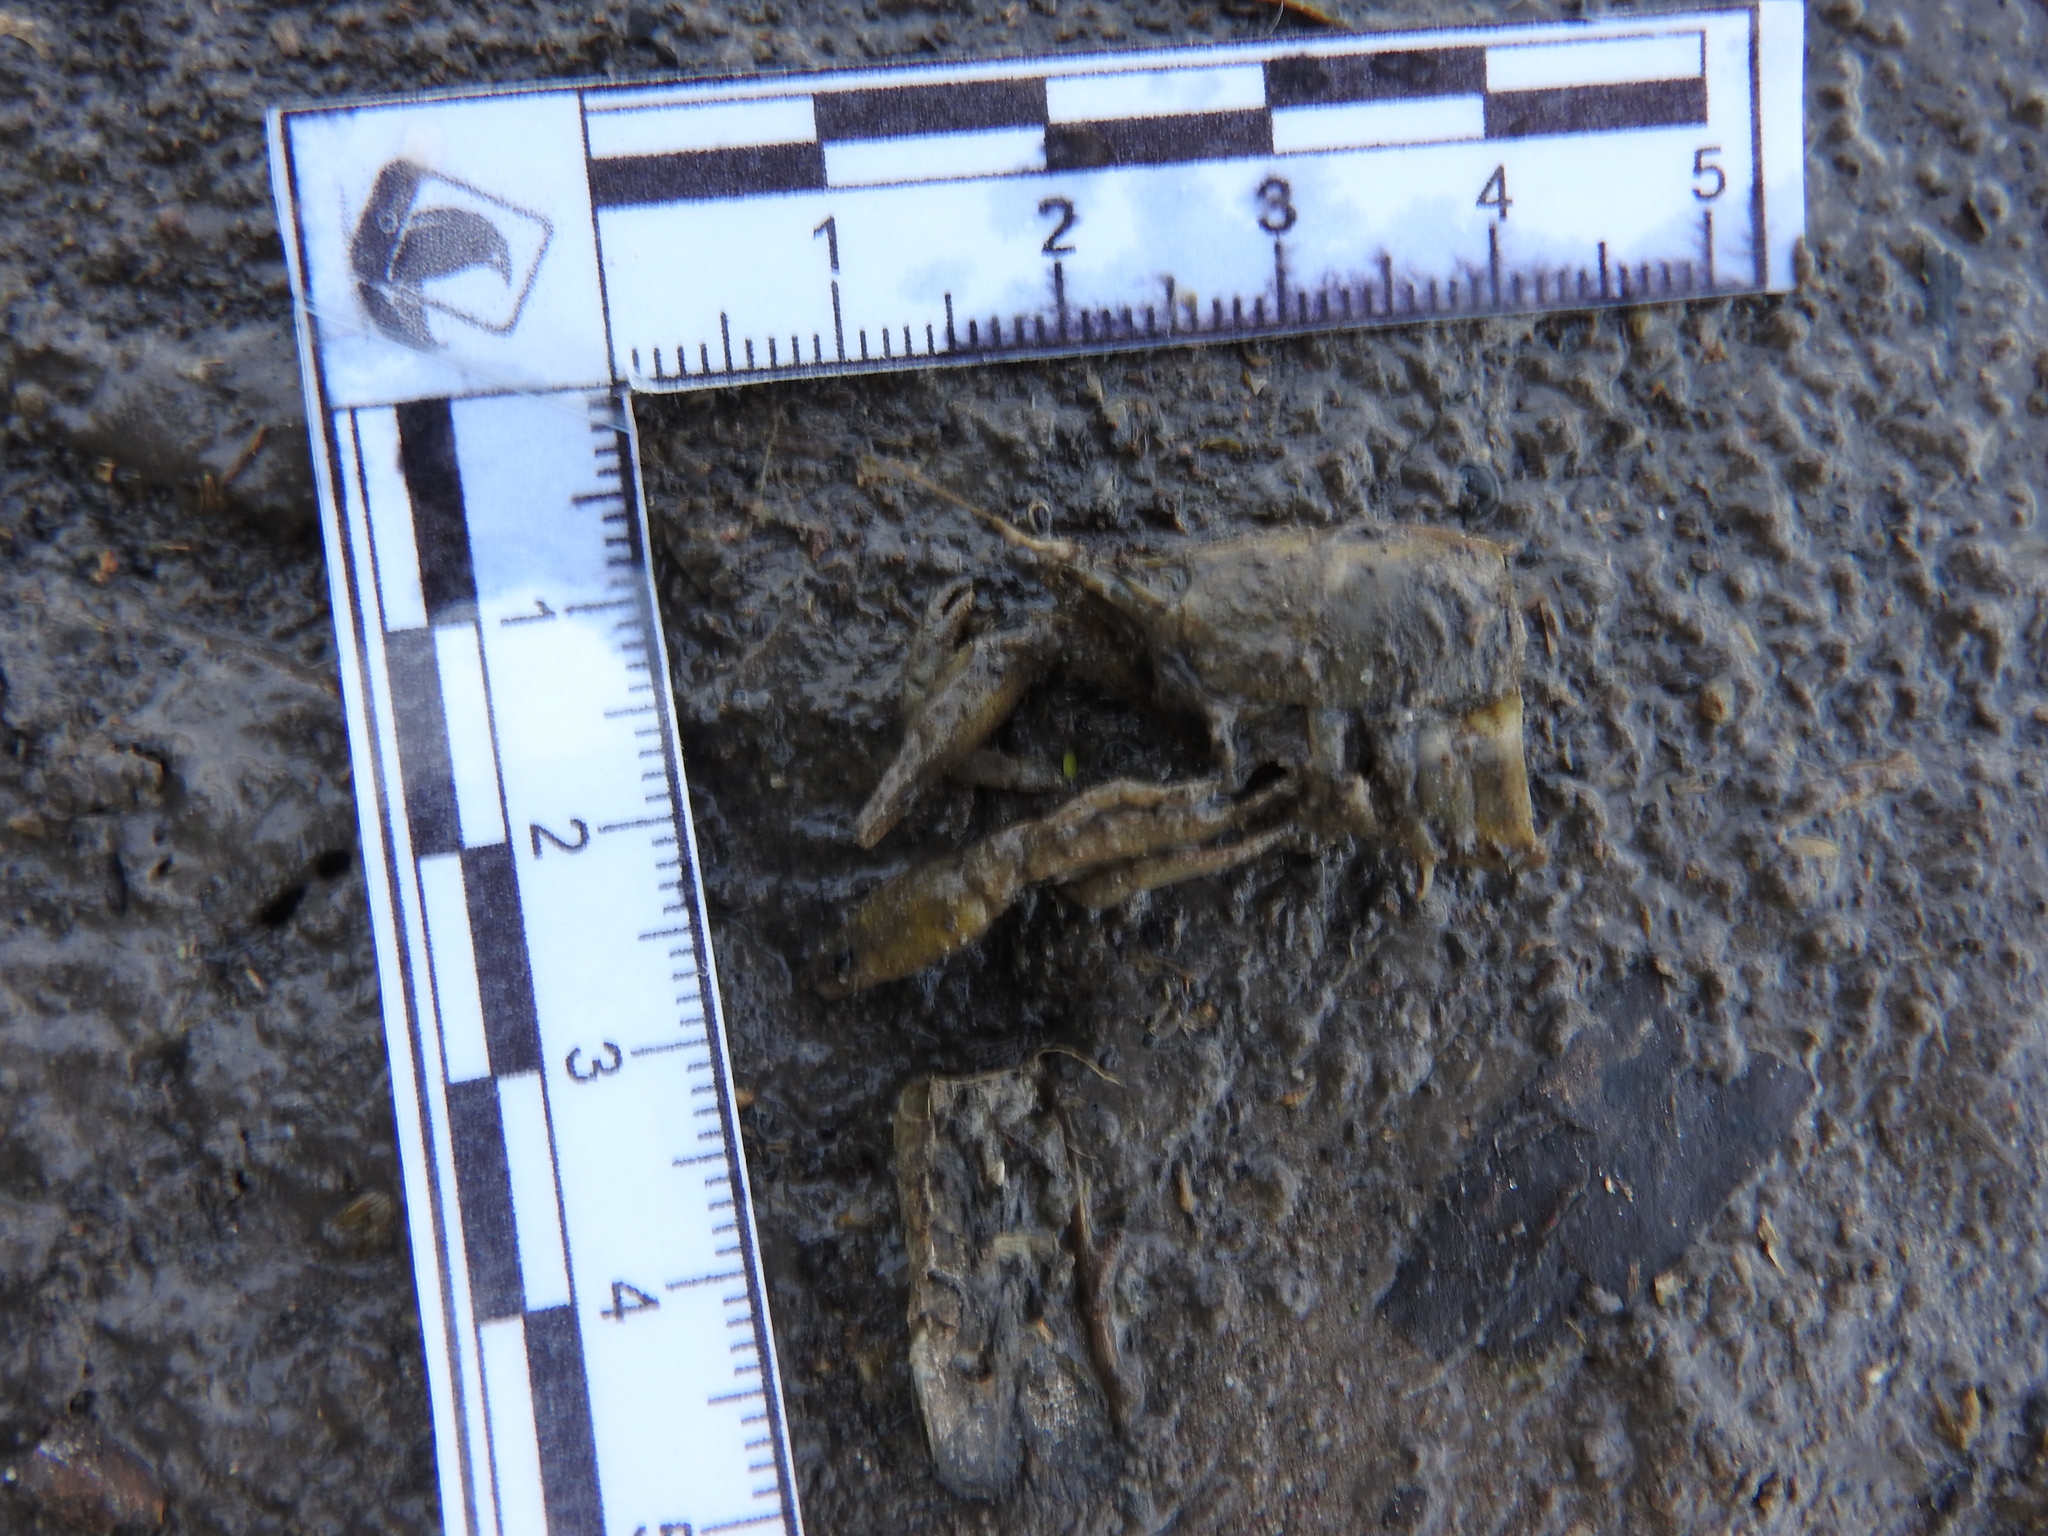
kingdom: Animalia
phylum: Arthropoda
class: Malacostraca
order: Decapoda
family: Cambaridae
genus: Cambarellus
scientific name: Cambarellus montezumae
